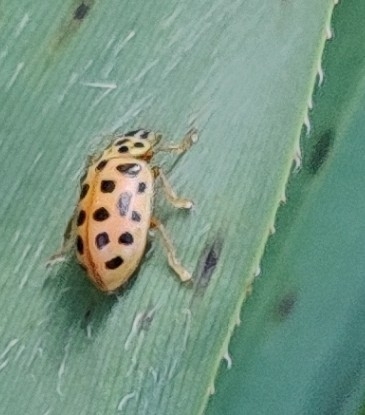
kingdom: Animalia
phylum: Arthropoda
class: Insecta
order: Coleoptera
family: Coccinellidae
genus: Anisosticta
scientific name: Anisosticta novemdecimpunctata
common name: Water ladybird
